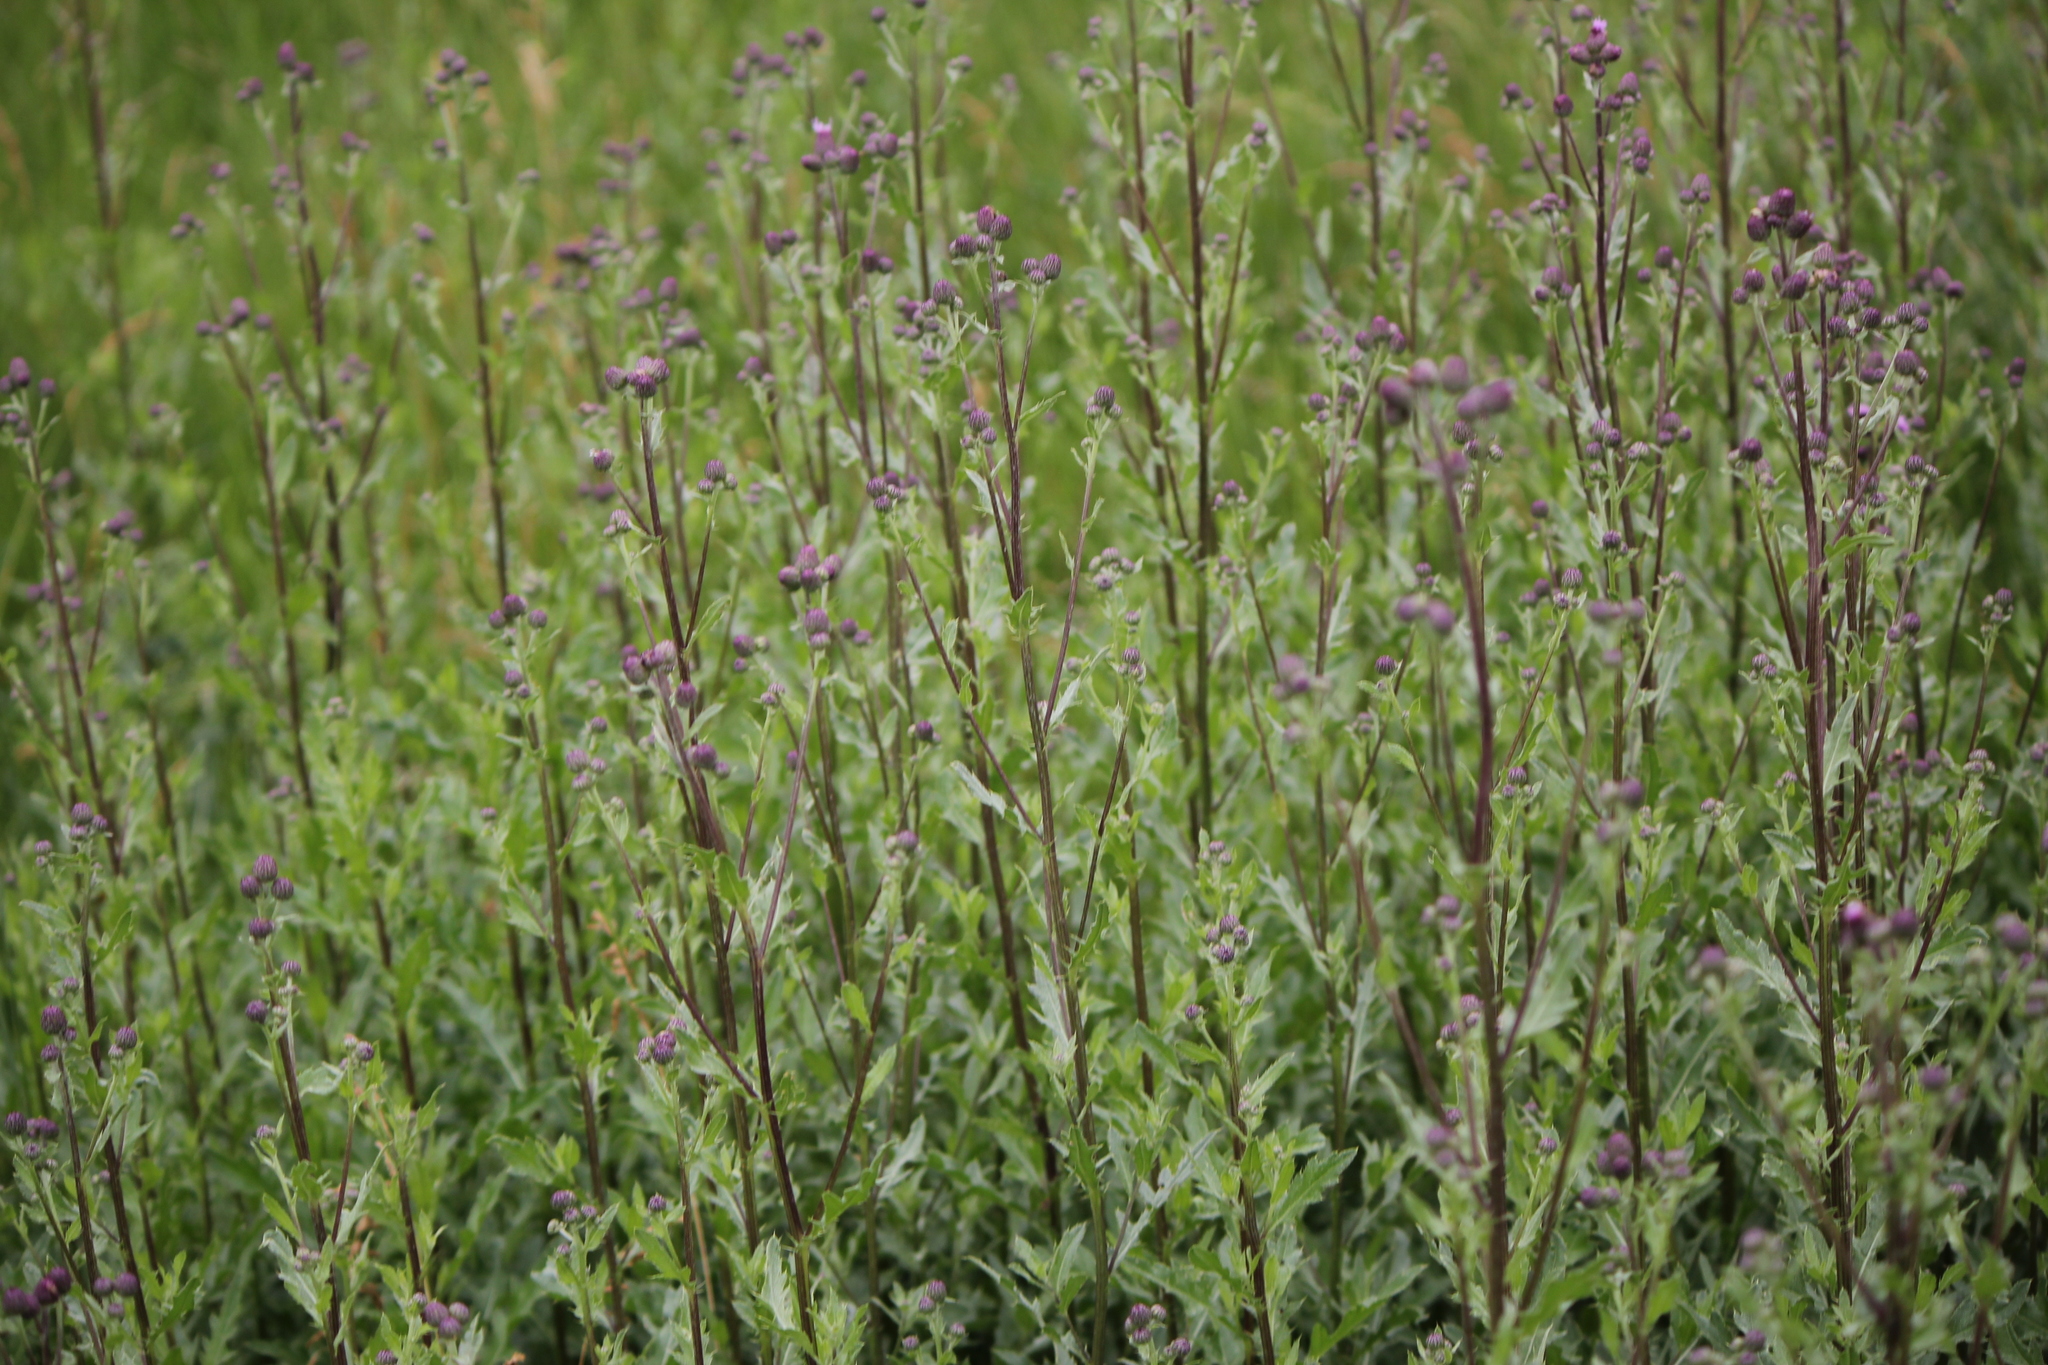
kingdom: Plantae
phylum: Tracheophyta
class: Magnoliopsida
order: Asterales
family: Asteraceae
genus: Cirsium
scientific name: Cirsium arvense
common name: Creeping thistle
